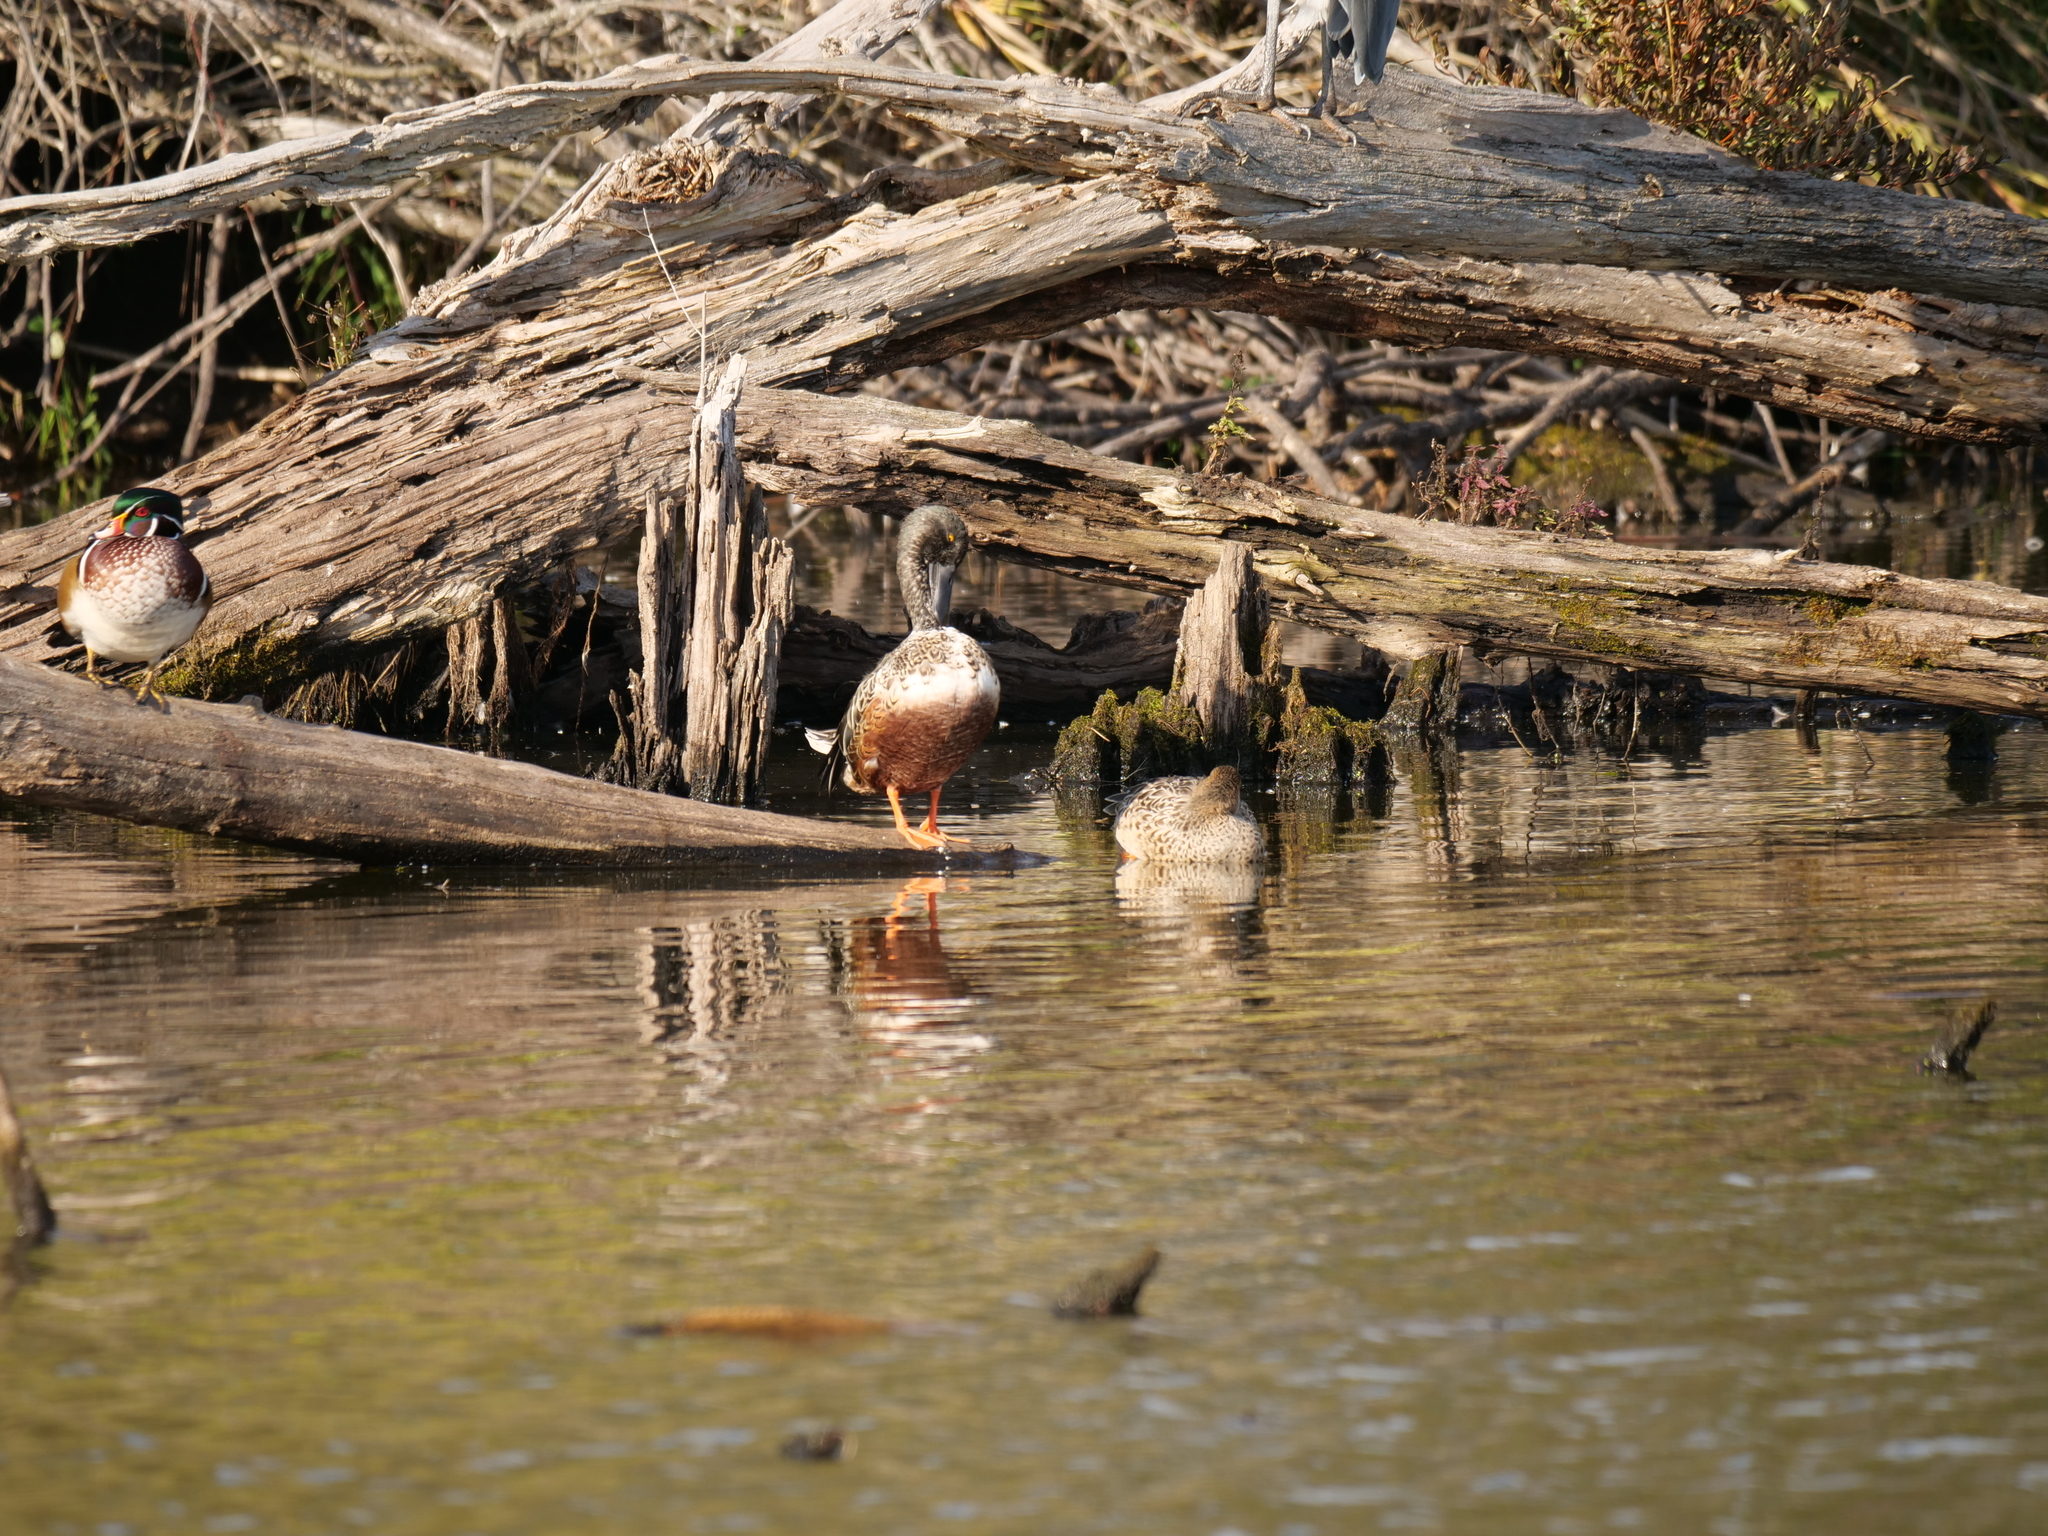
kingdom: Animalia
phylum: Chordata
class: Aves
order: Anseriformes
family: Anatidae
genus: Spatula
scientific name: Spatula clypeata
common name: Northern shoveler
